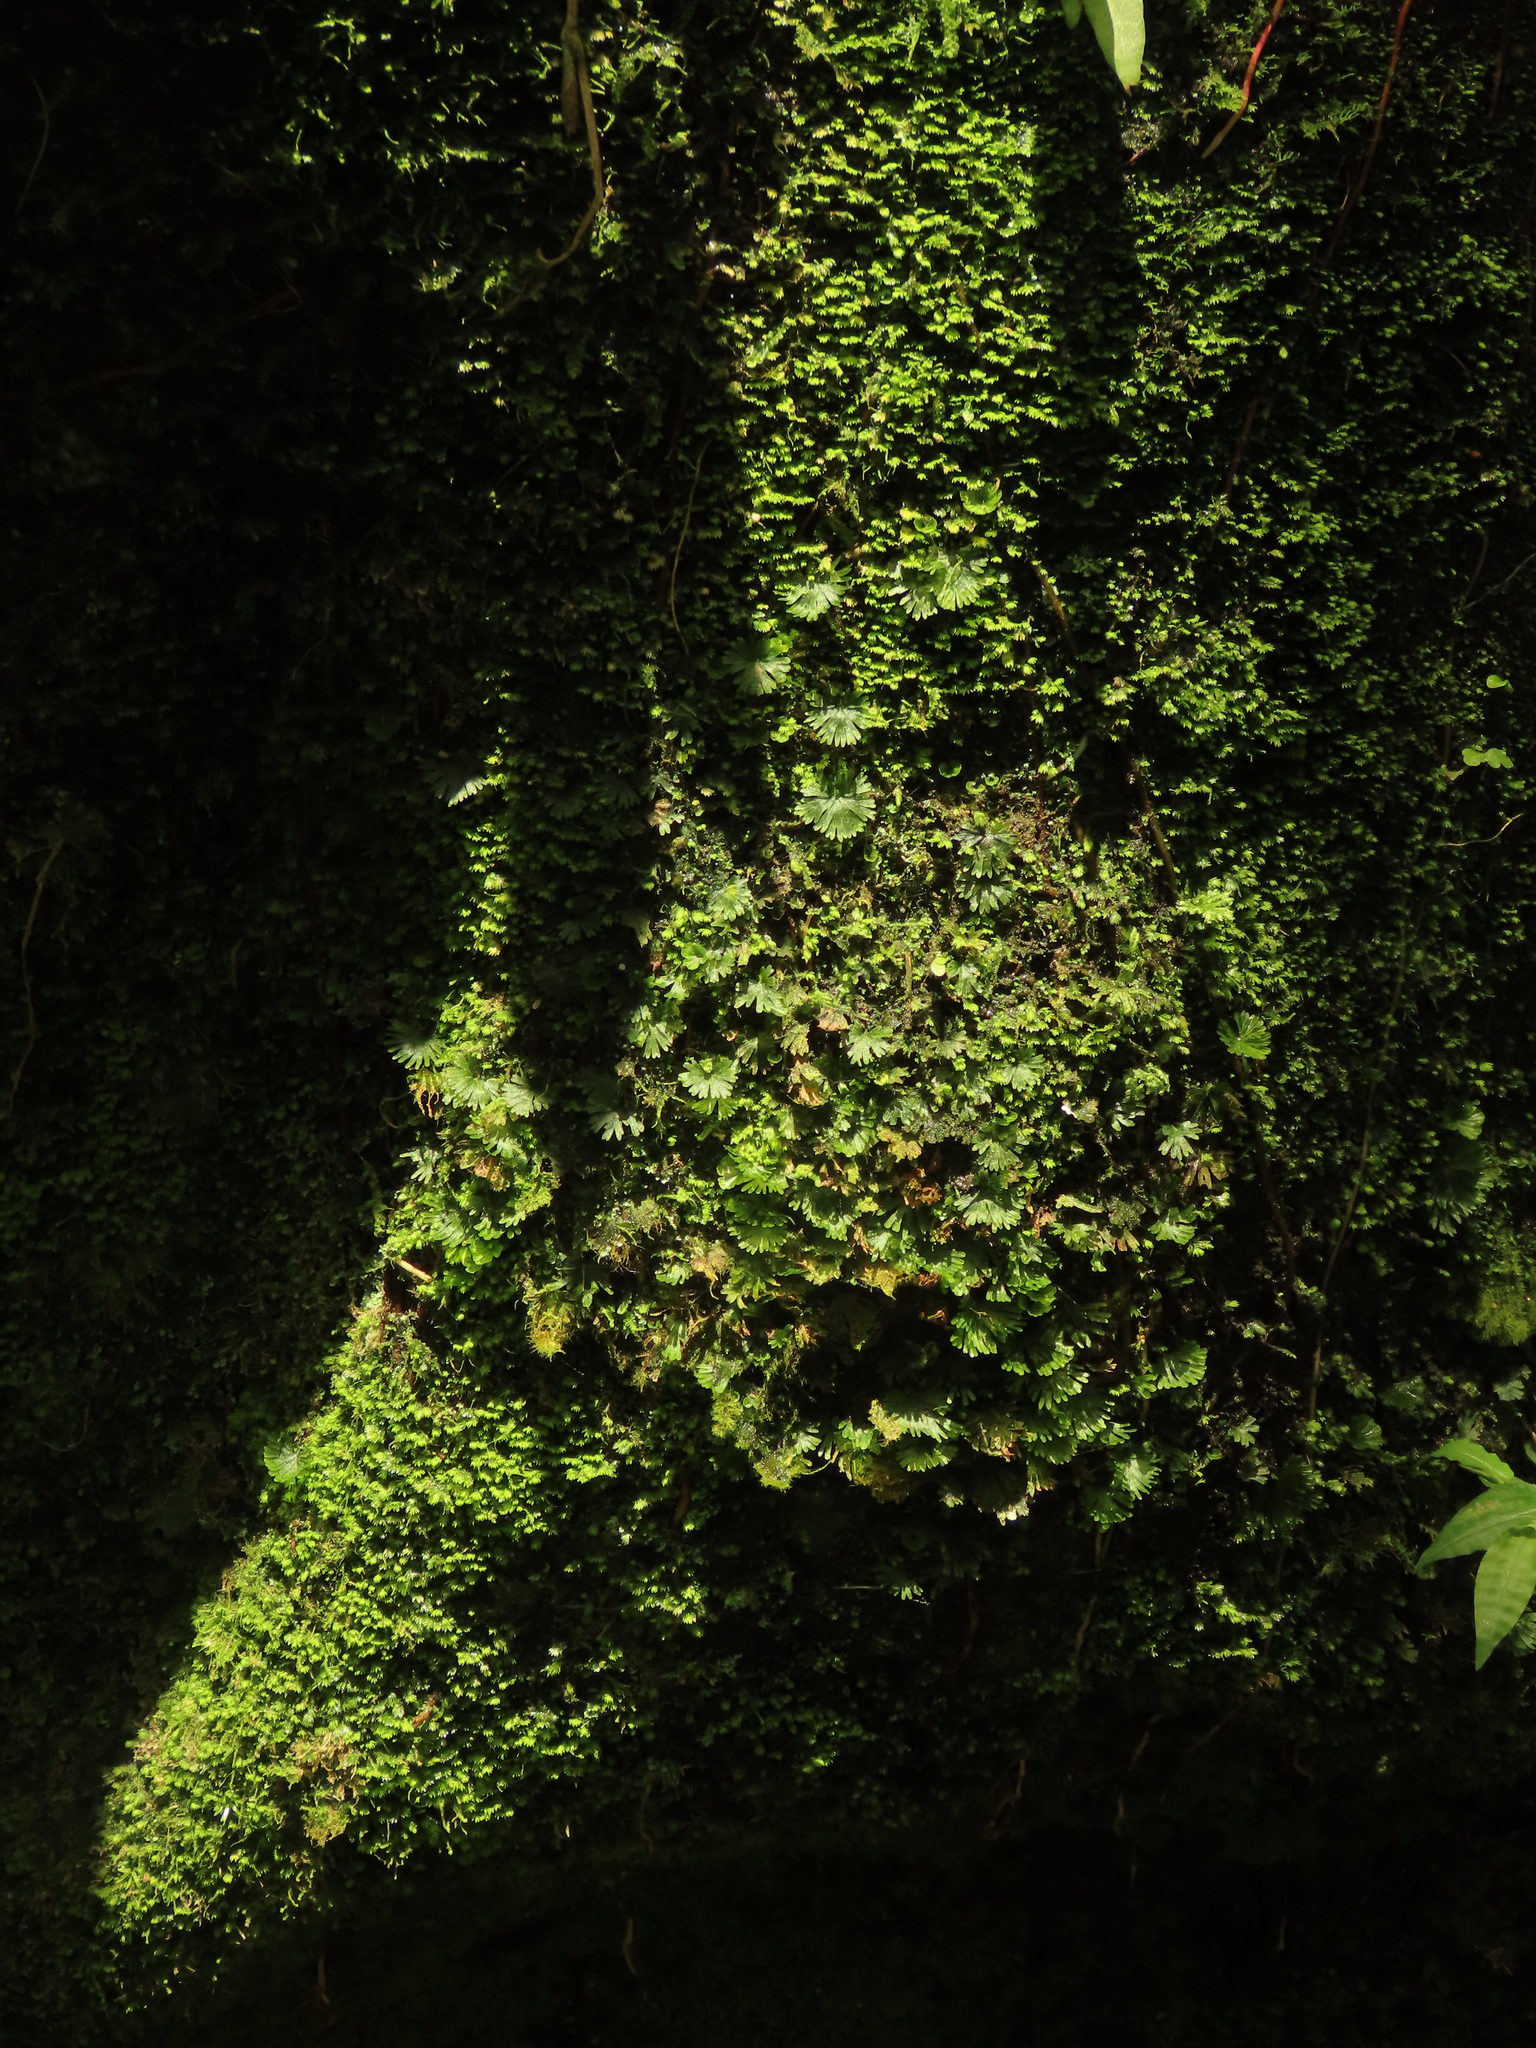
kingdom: Plantae
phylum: Tracheophyta
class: Polypodiopsida
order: Hymenophyllales
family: Hymenophyllaceae
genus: Crepidomanes
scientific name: Crepidomanes parvulum
